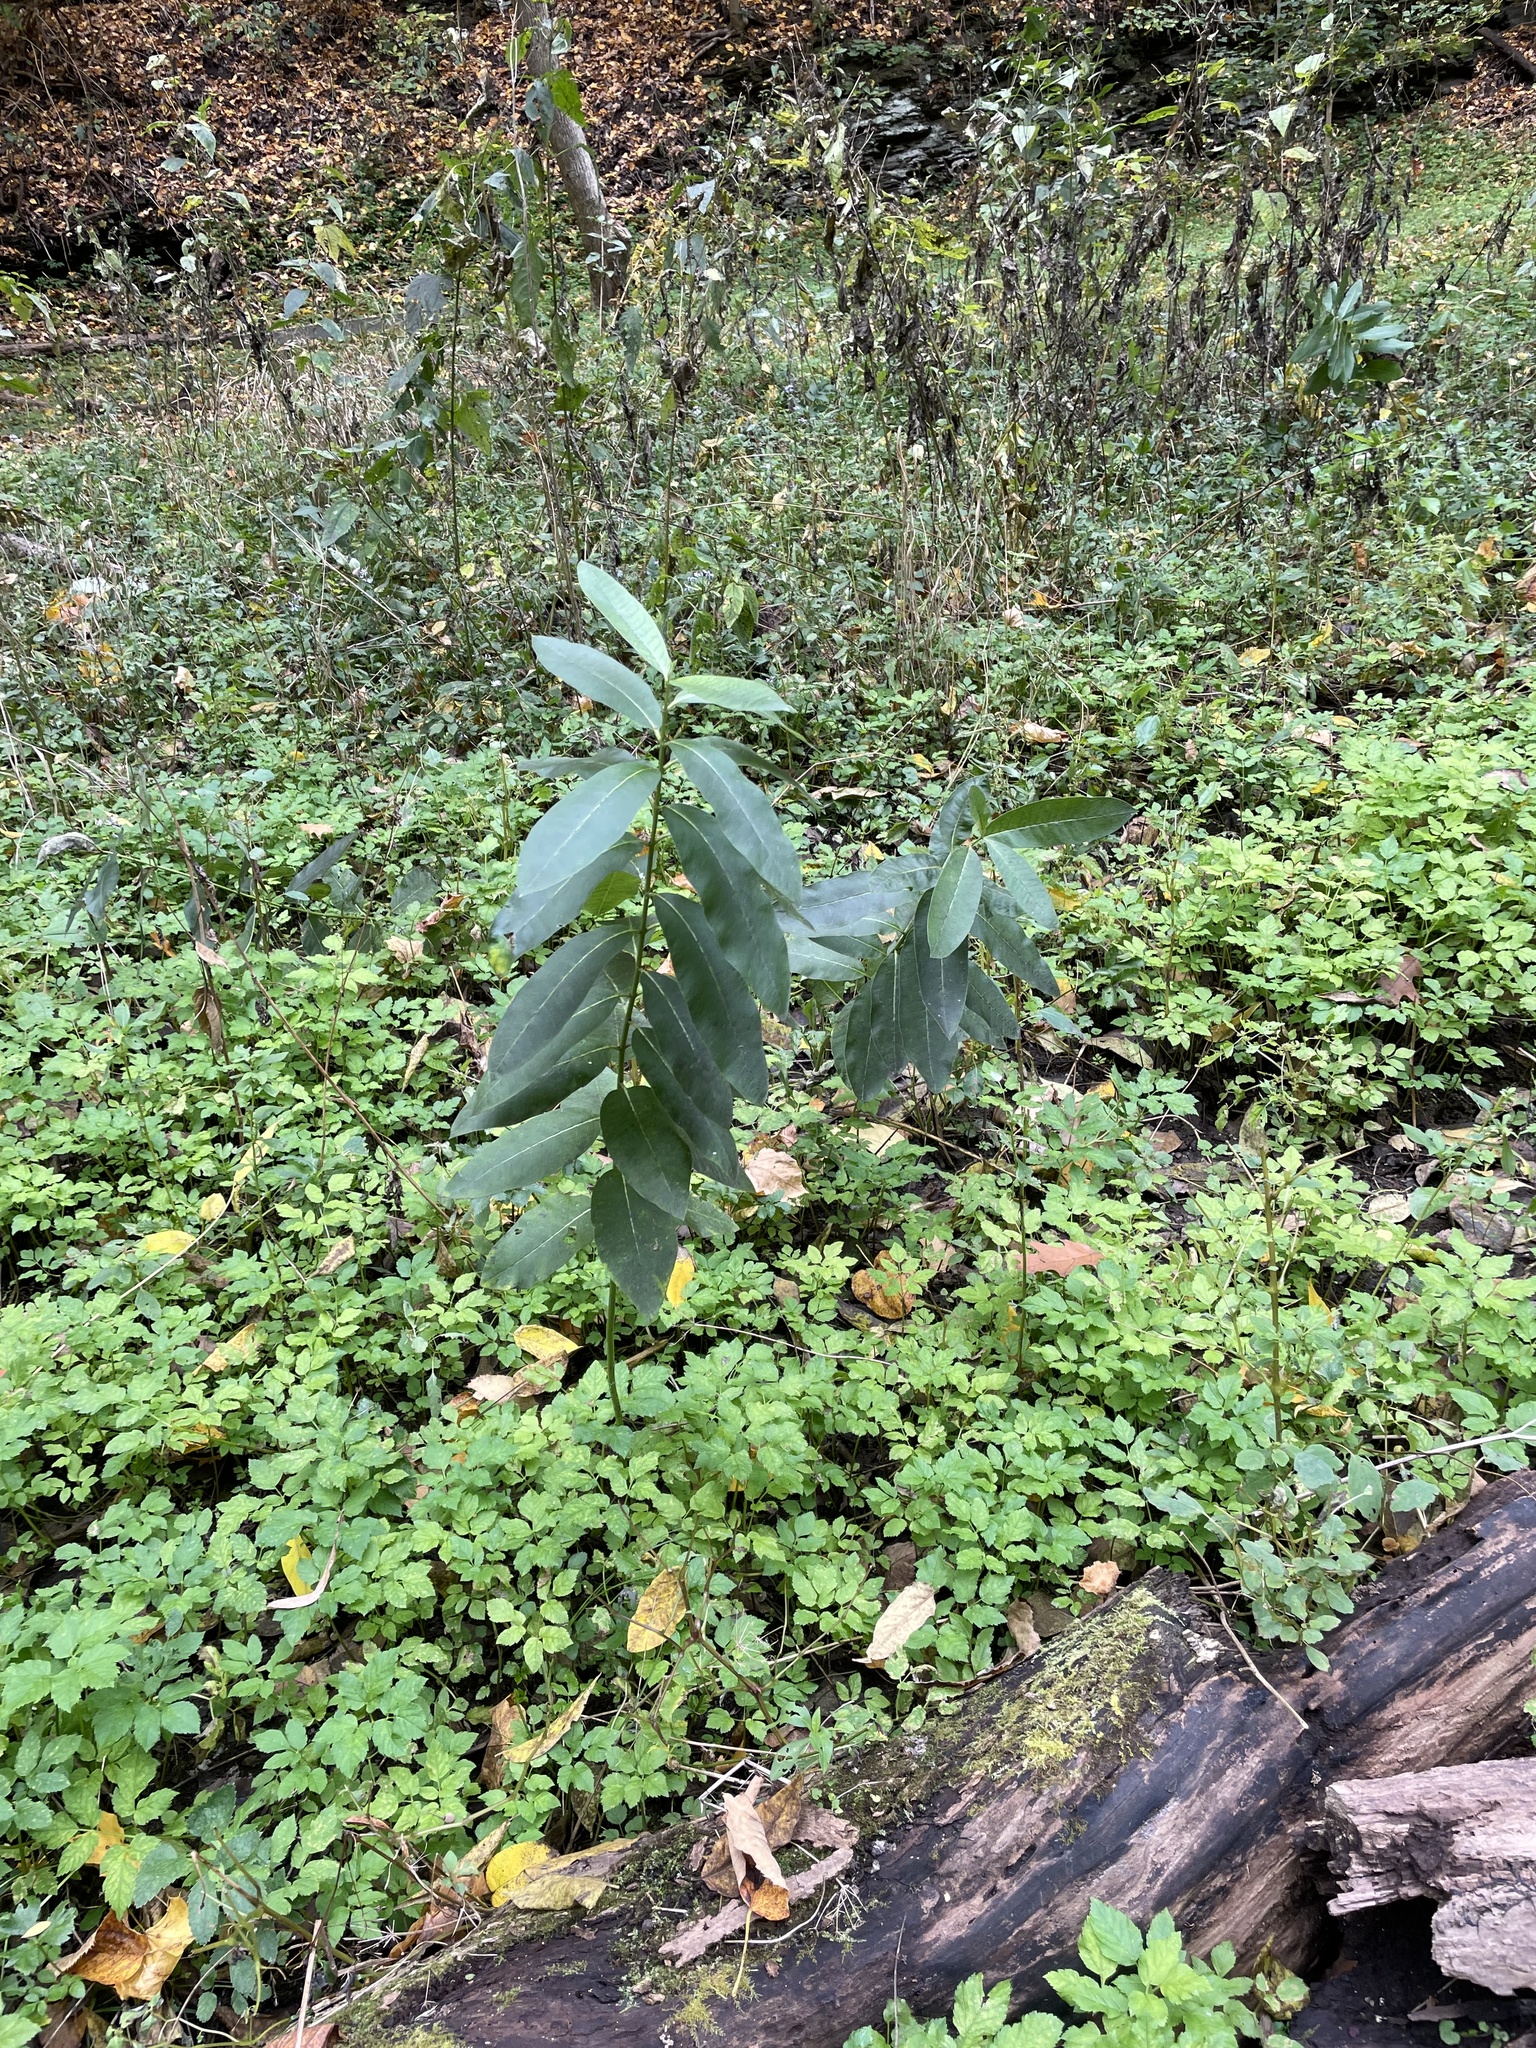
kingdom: Plantae
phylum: Tracheophyta
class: Magnoliopsida
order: Gentianales
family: Apocynaceae
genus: Asclepias
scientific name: Asclepias syriaca
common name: Common milkweed
